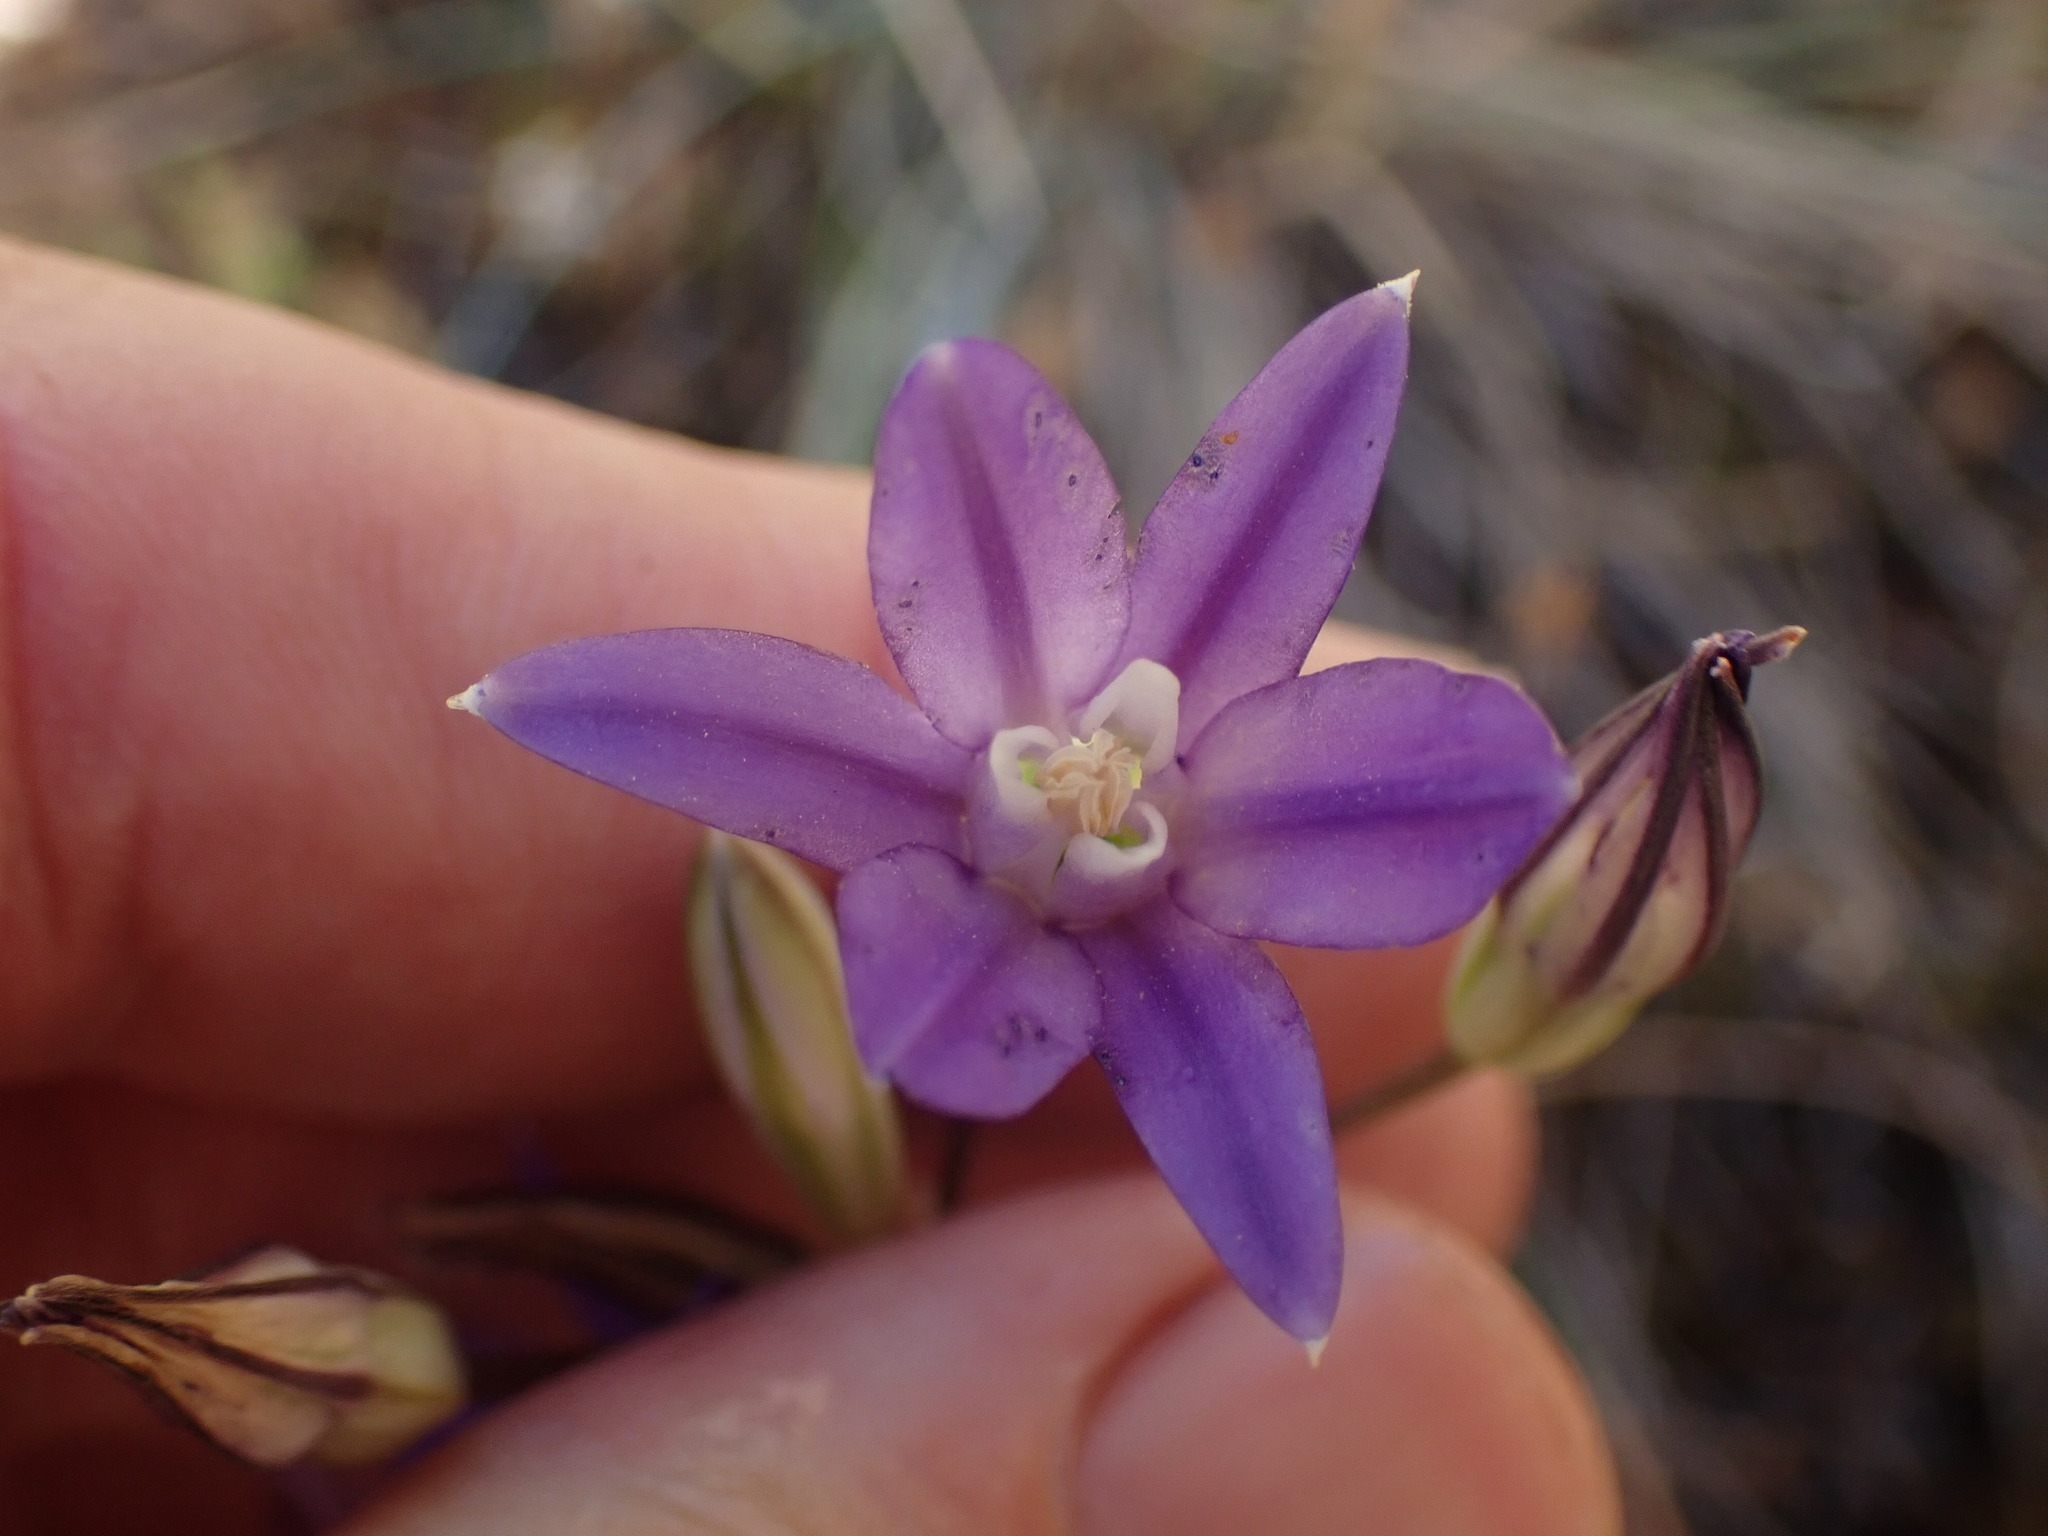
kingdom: Plantae
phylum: Tracheophyta
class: Liliopsida
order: Asparagales
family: Asparagaceae
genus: Brodiaea
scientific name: Brodiaea coronaria
